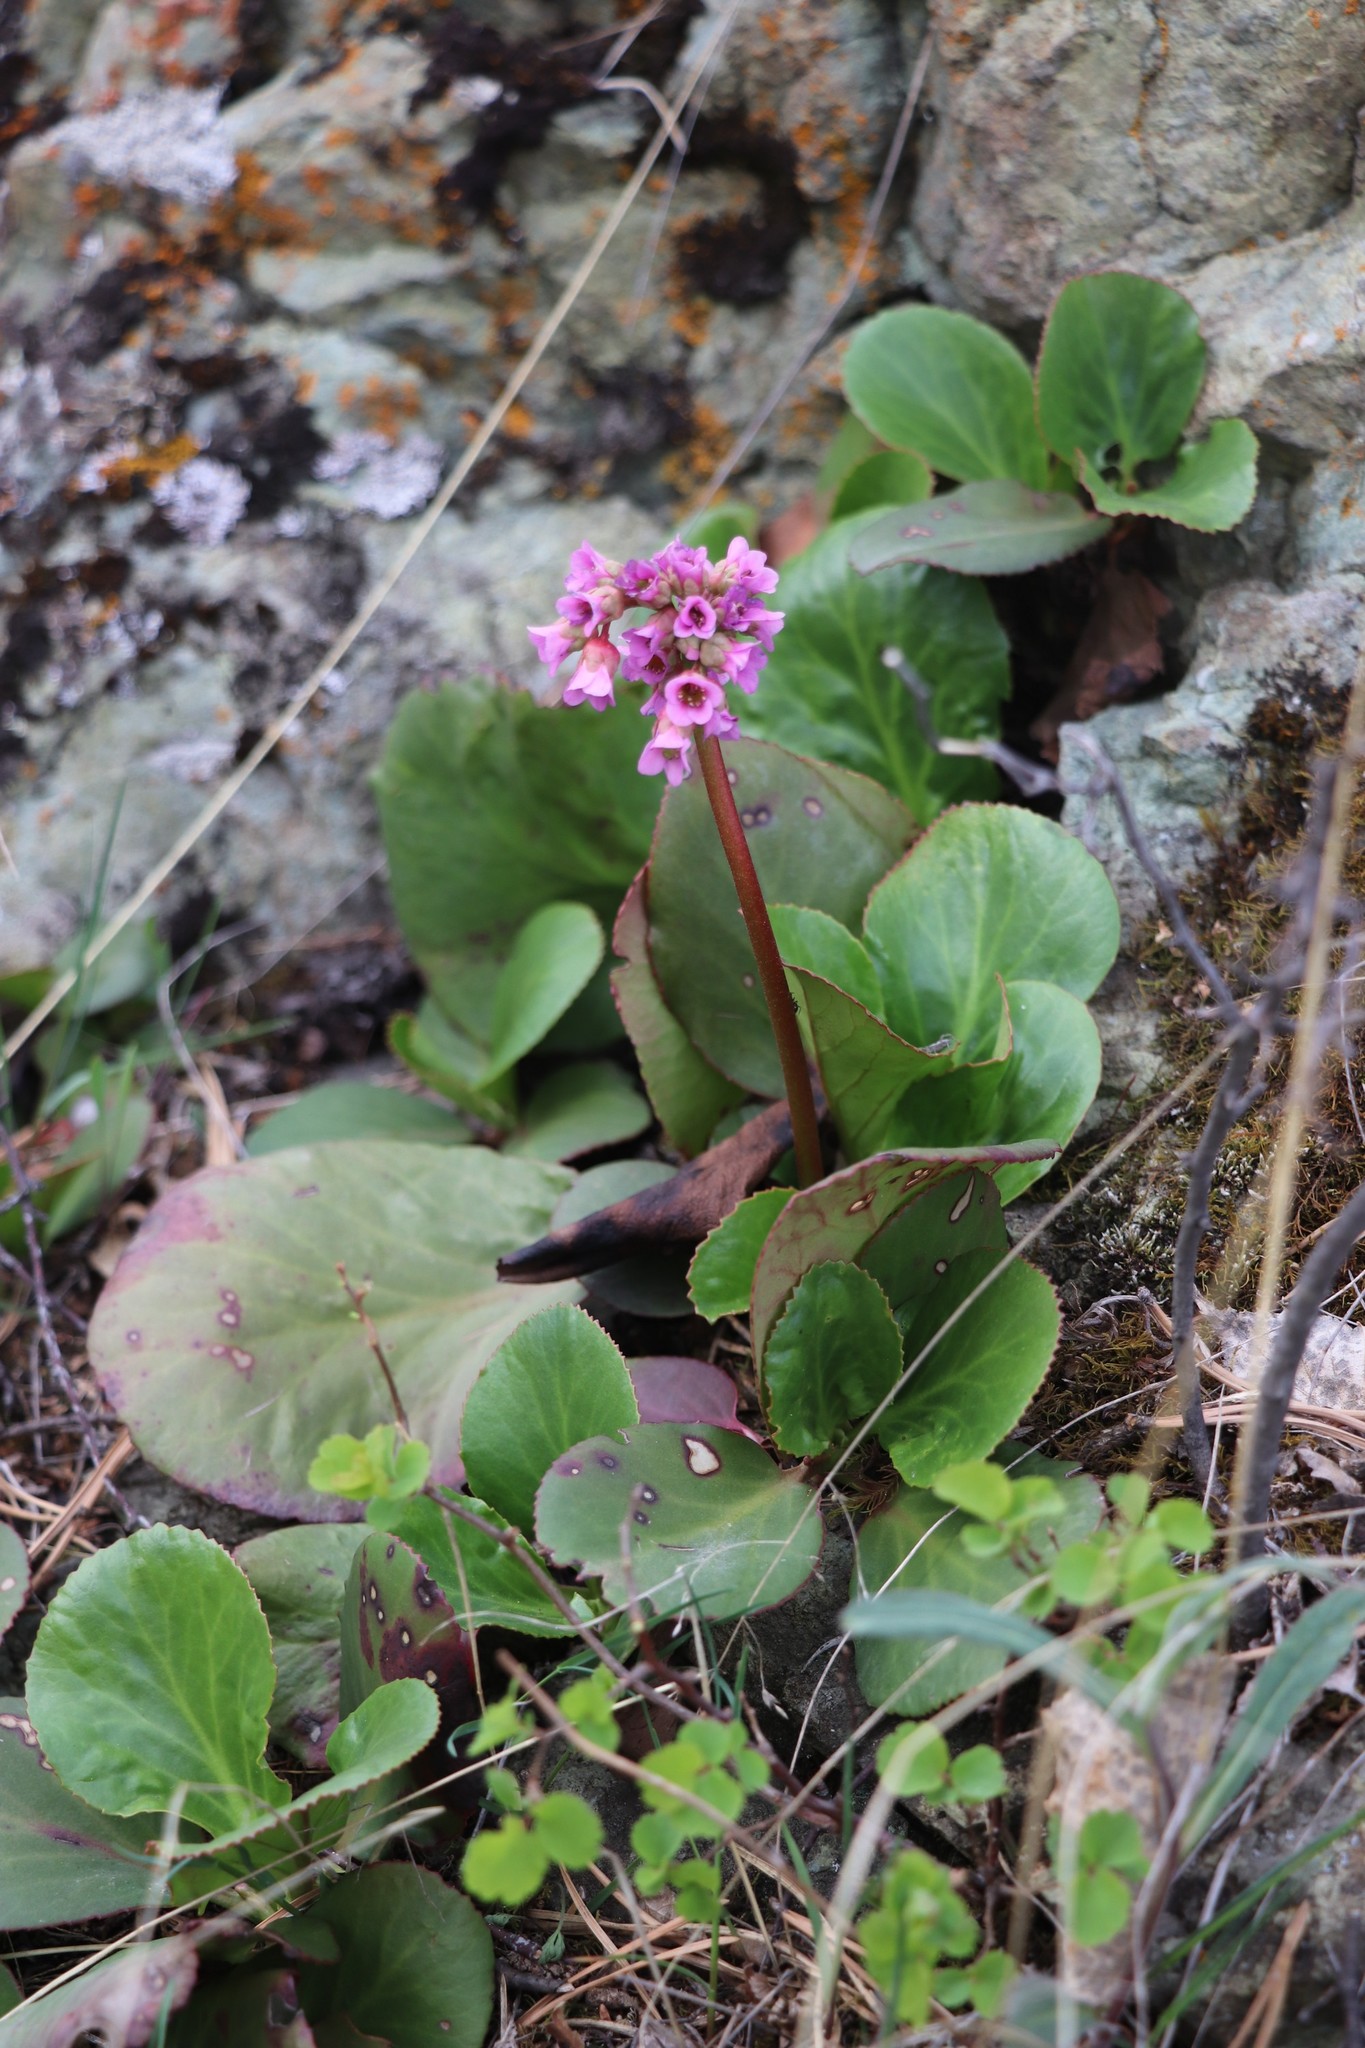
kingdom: Plantae
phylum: Tracheophyta
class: Magnoliopsida
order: Saxifragales
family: Saxifragaceae
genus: Bergenia
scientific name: Bergenia crassifolia
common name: Elephant-ears
